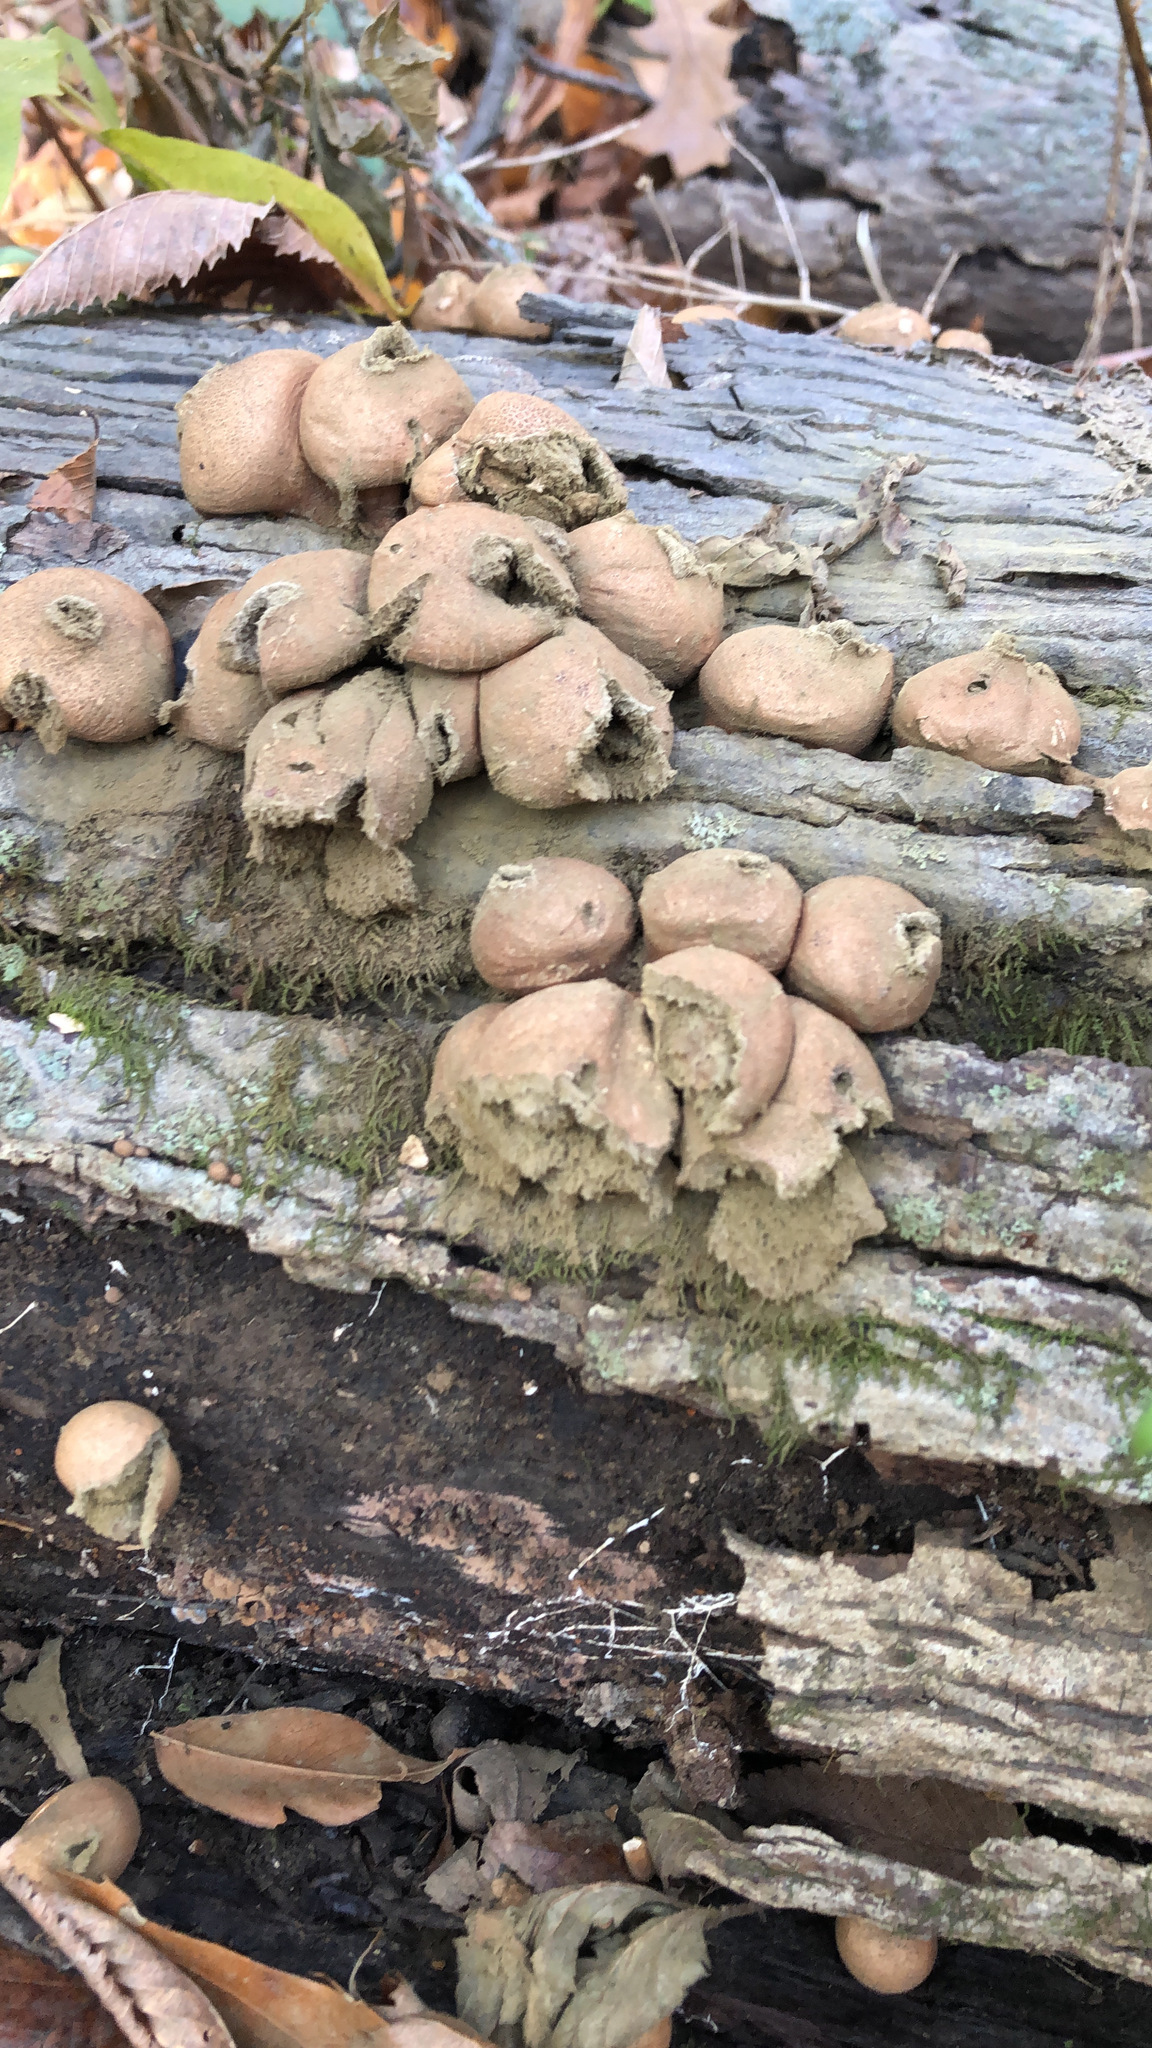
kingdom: Fungi
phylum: Basidiomycota
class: Agaricomycetes
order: Agaricales
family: Lycoperdaceae
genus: Apioperdon
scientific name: Apioperdon pyriforme
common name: Pear-shaped puffball
